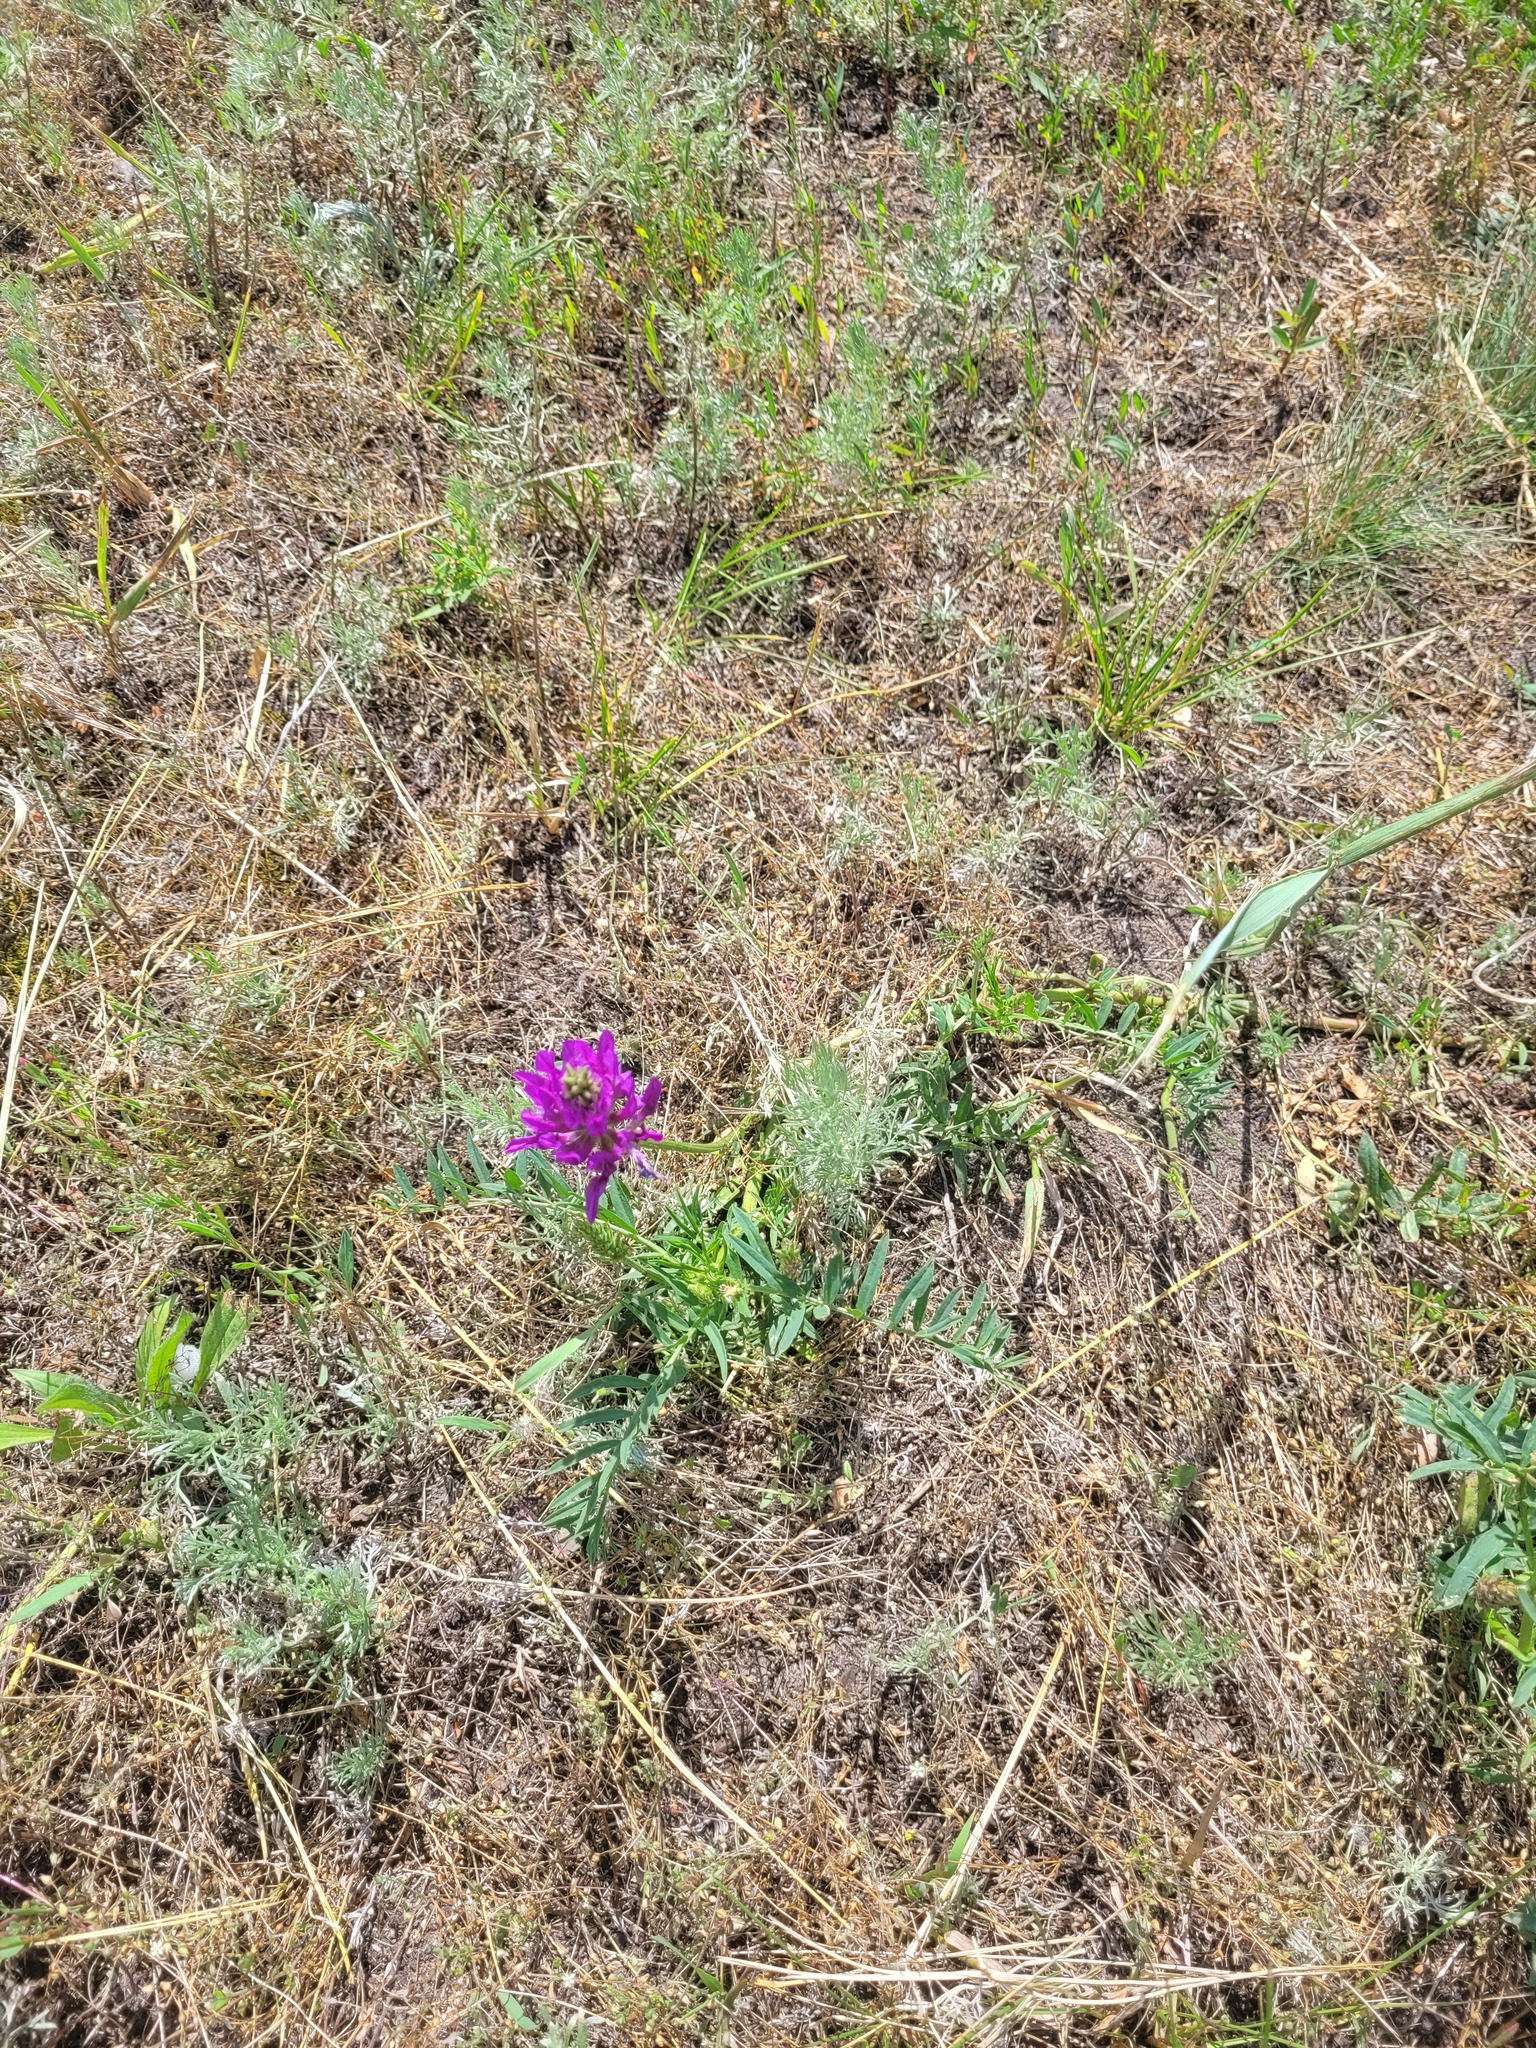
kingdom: Plantae
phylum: Tracheophyta
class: Magnoliopsida
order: Fabales
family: Fabaceae
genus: Astragalus
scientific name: Astragalus onobrychis
